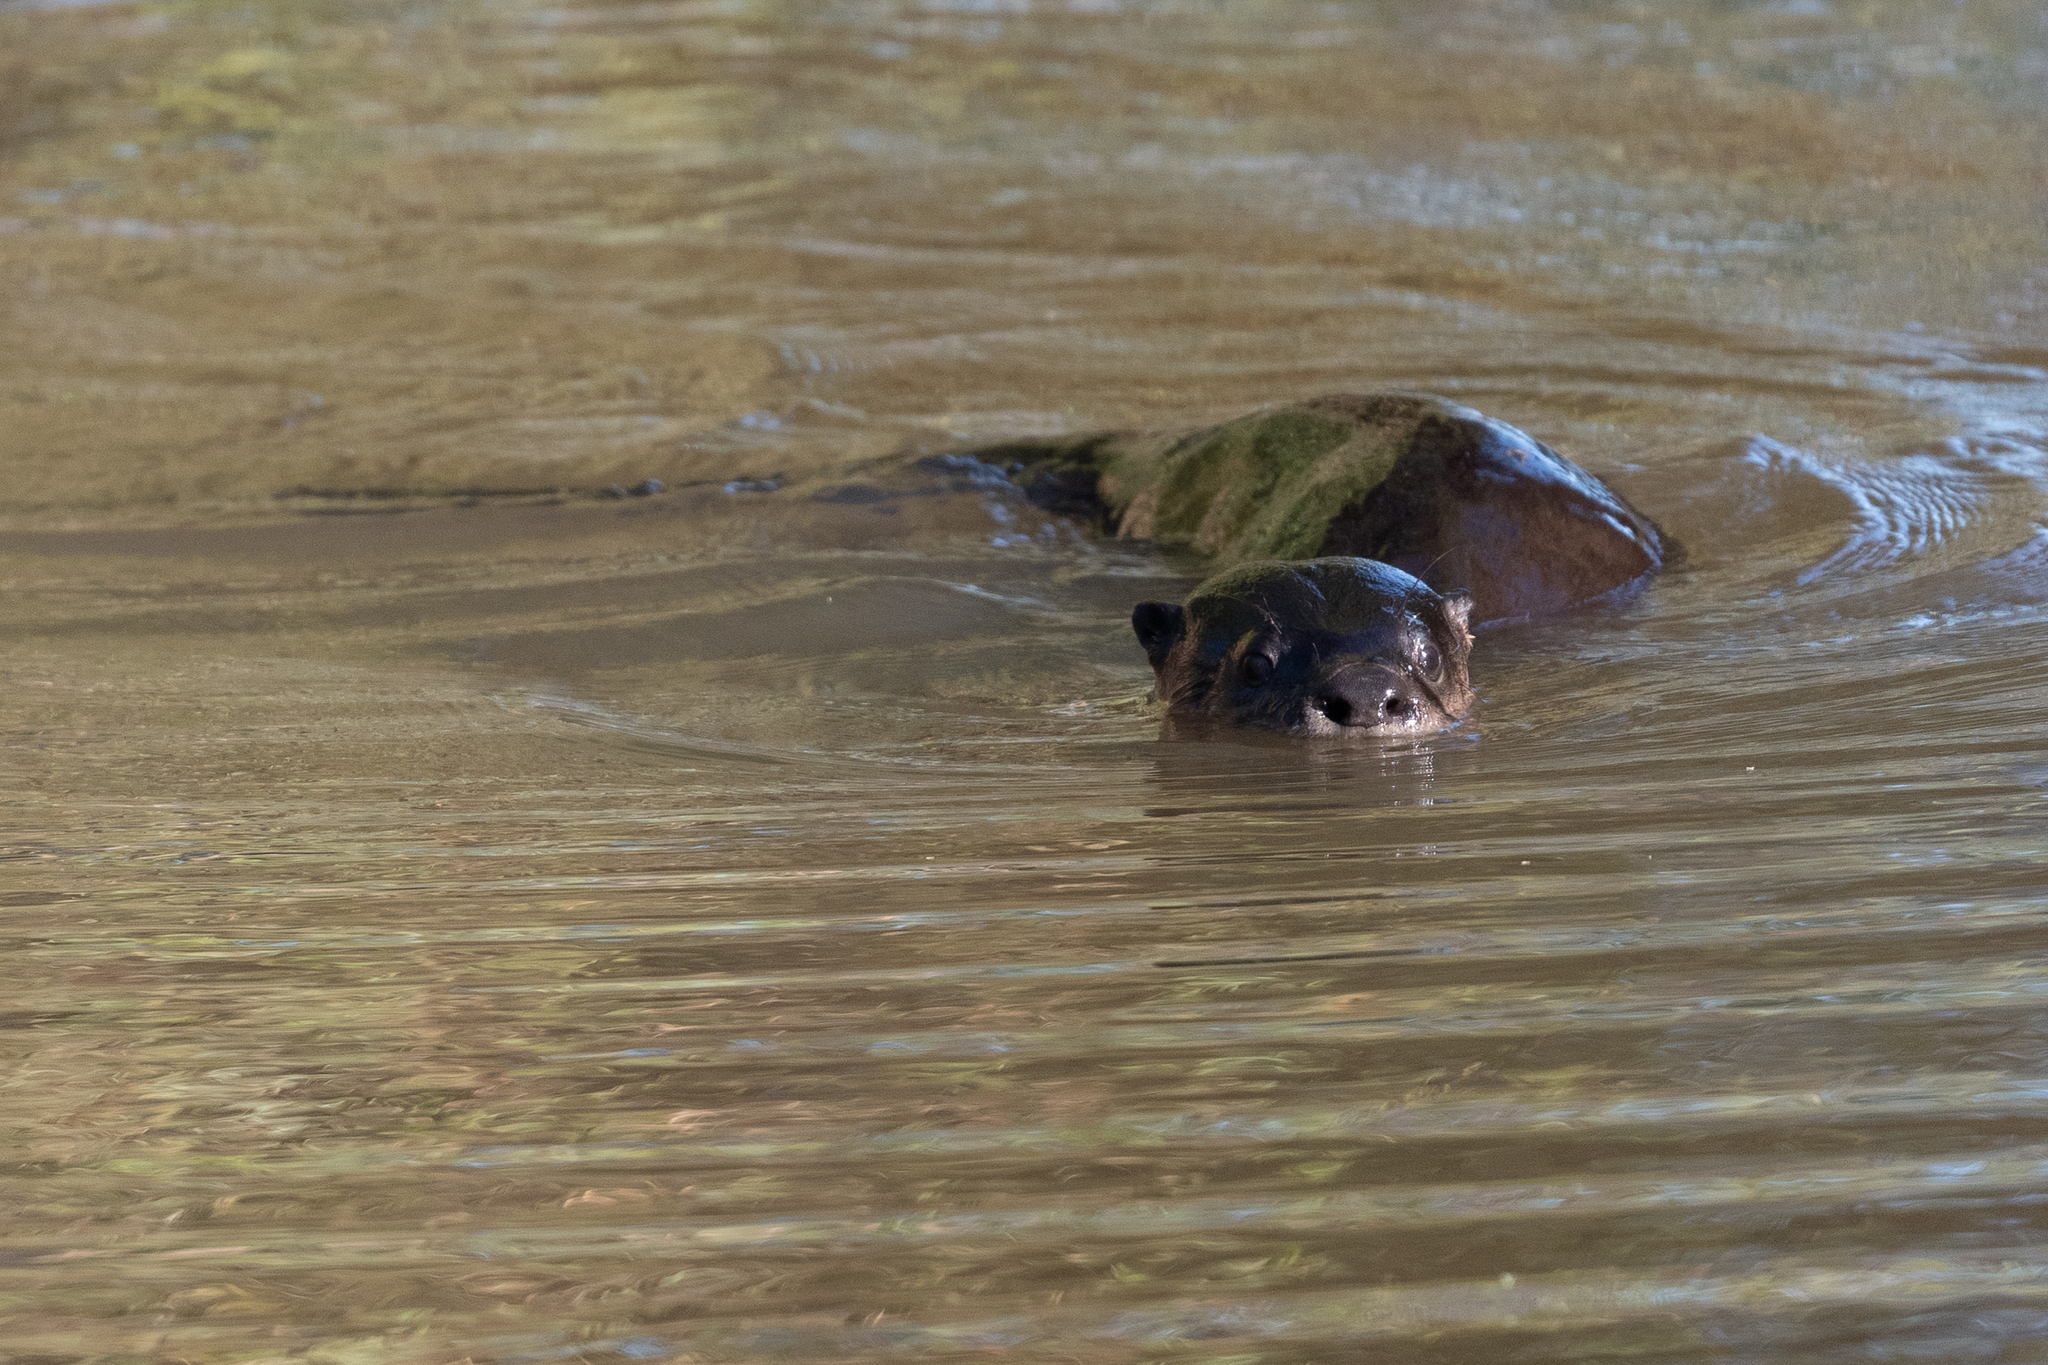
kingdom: Animalia
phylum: Chordata
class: Mammalia
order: Carnivora
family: Mustelidae
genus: Lontra
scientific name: Lontra canadensis
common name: North american river otter
